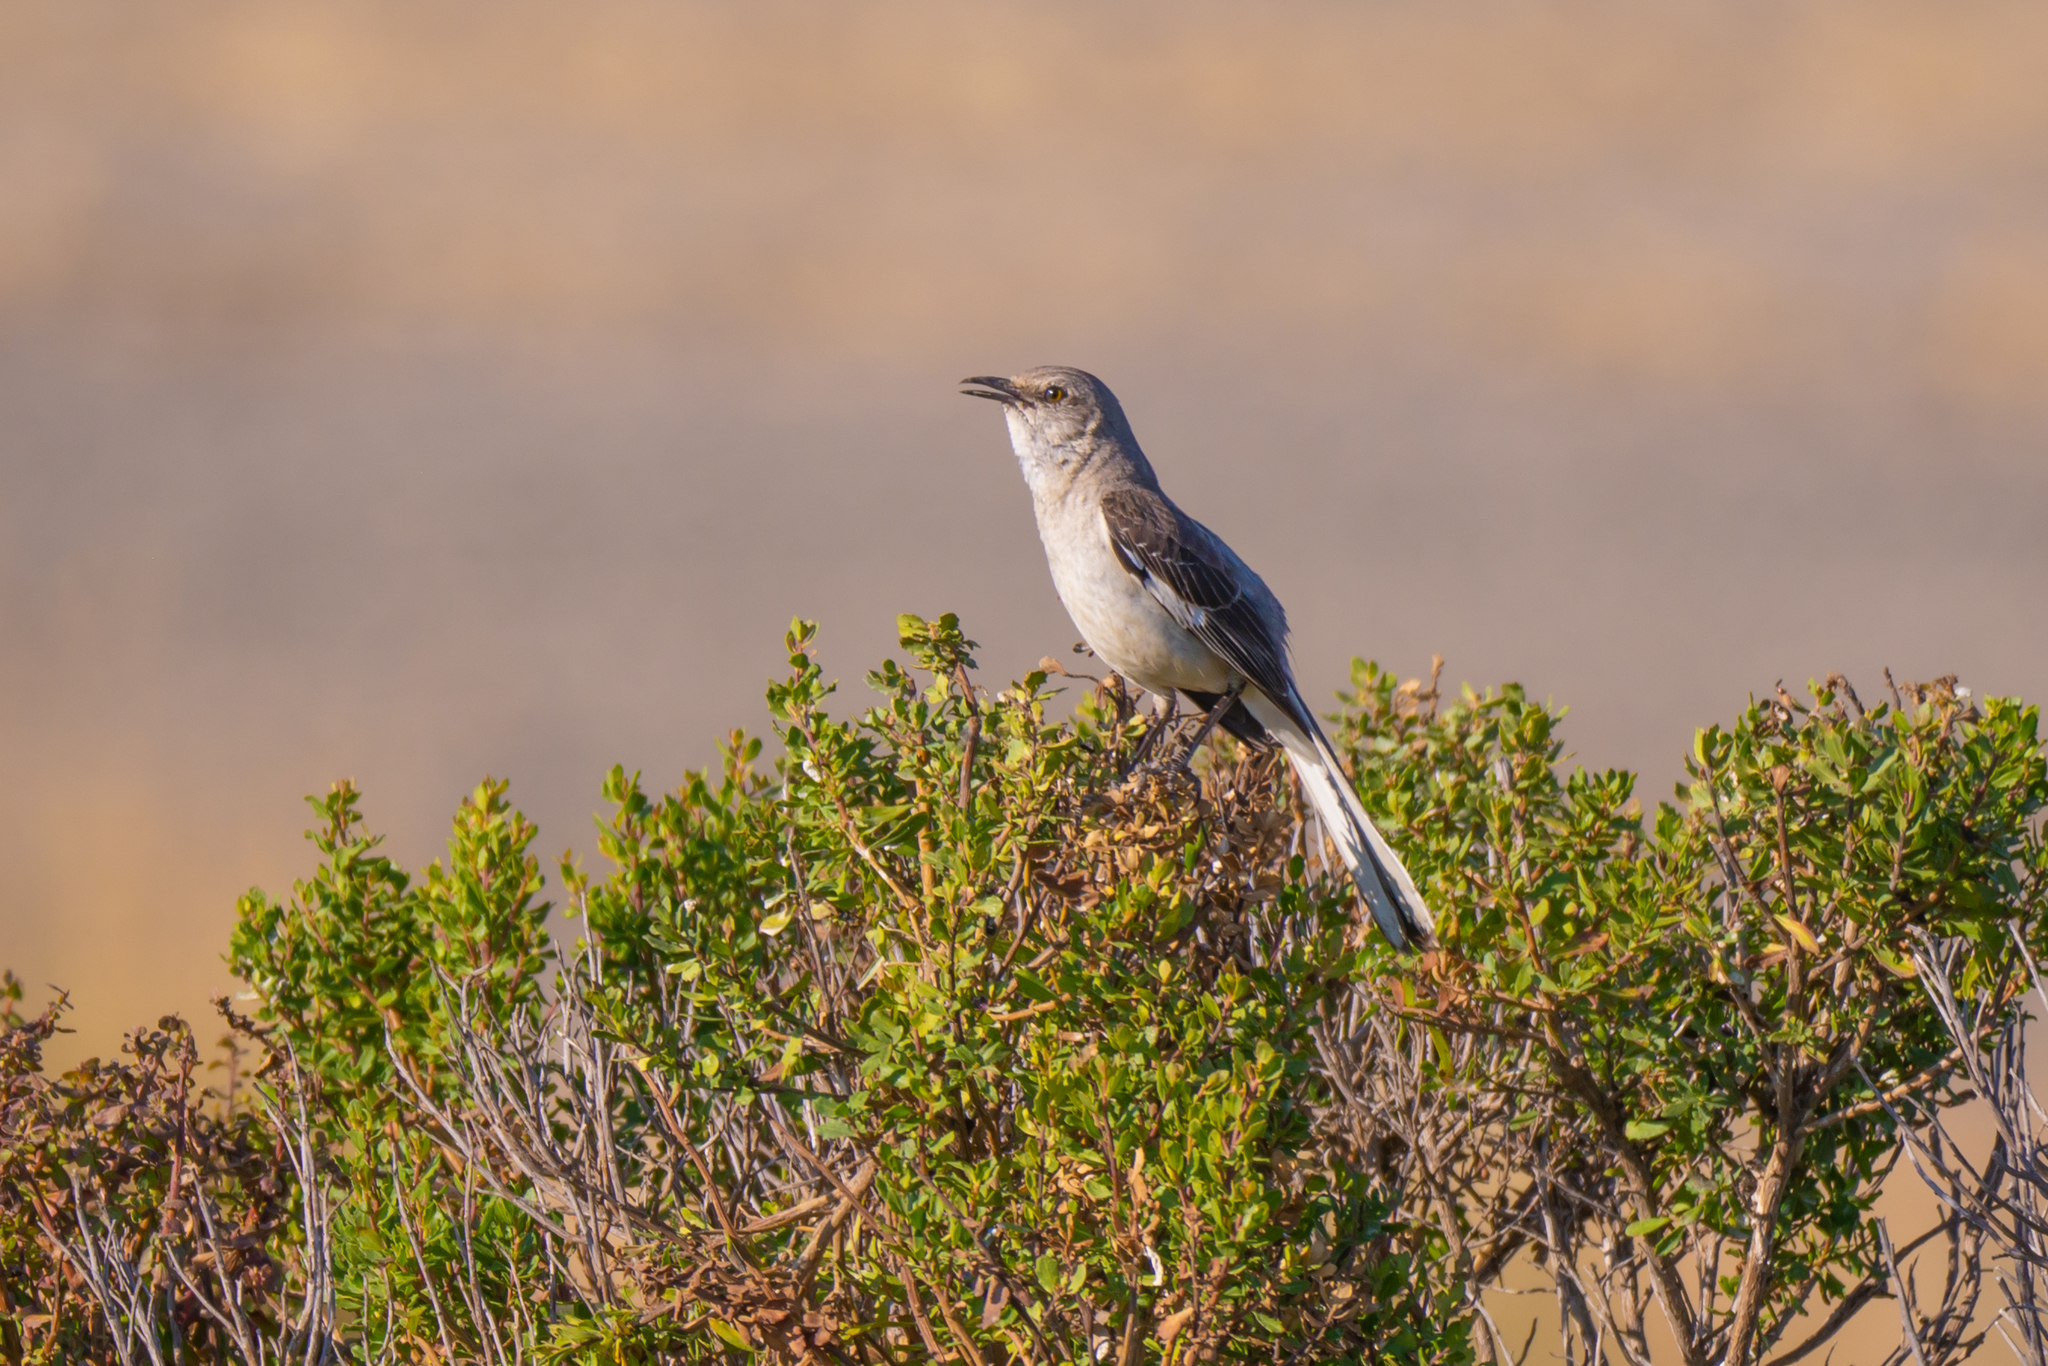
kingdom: Animalia
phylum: Chordata
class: Aves
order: Passeriformes
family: Mimidae
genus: Mimus
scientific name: Mimus polyglottos
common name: Northern mockingbird
